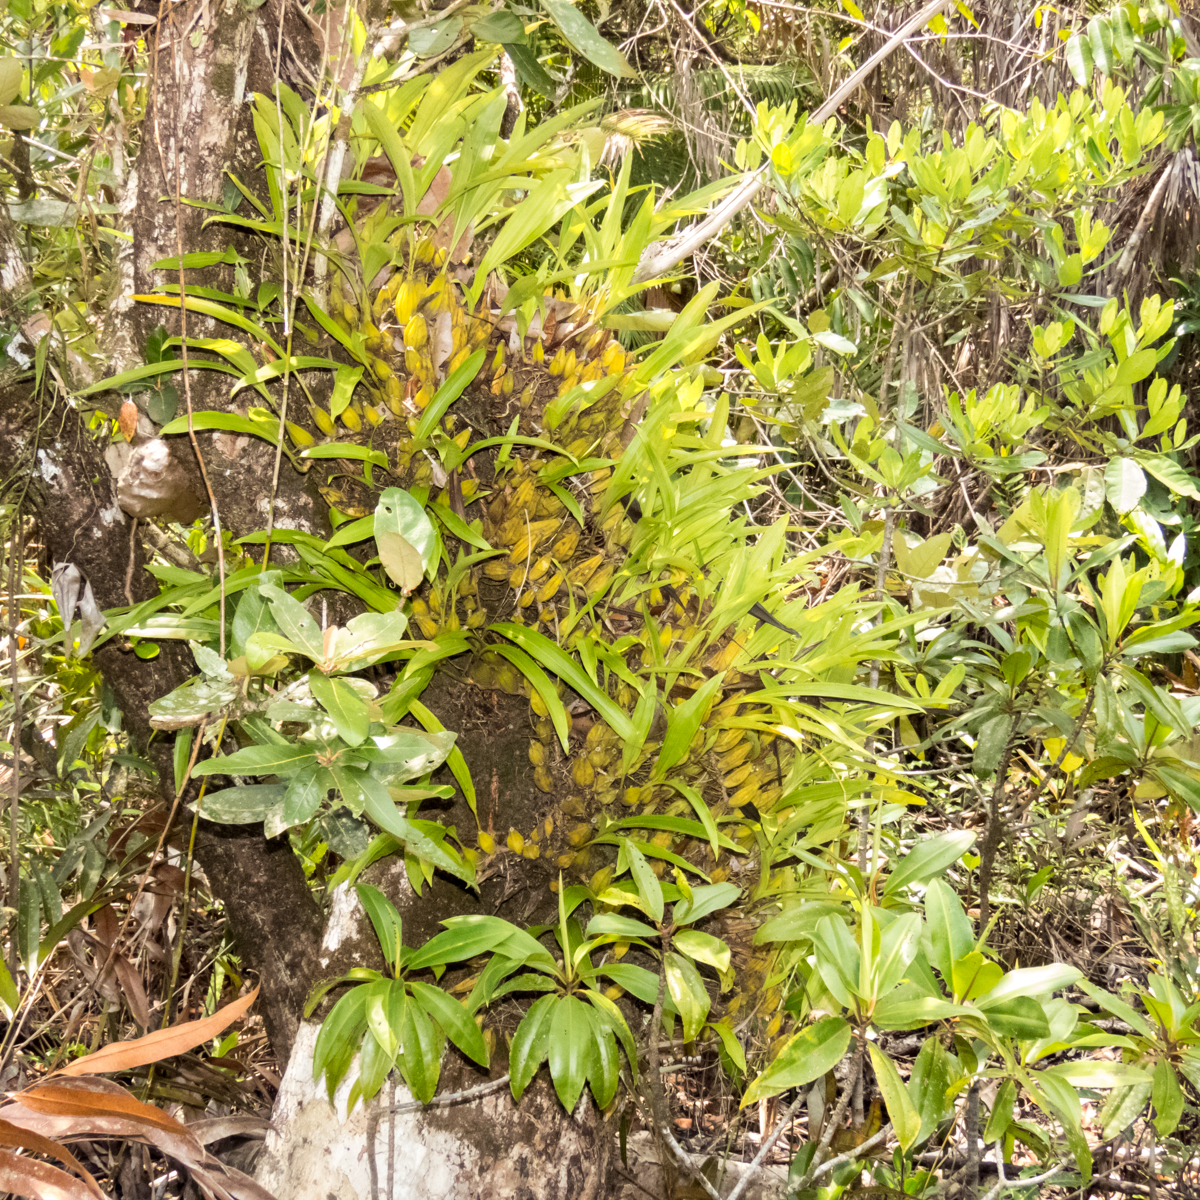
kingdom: Plantae
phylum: Tracheophyta
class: Liliopsida
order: Asparagales
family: Orchidaceae
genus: Coelogyne
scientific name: Coelogyne trinervis
